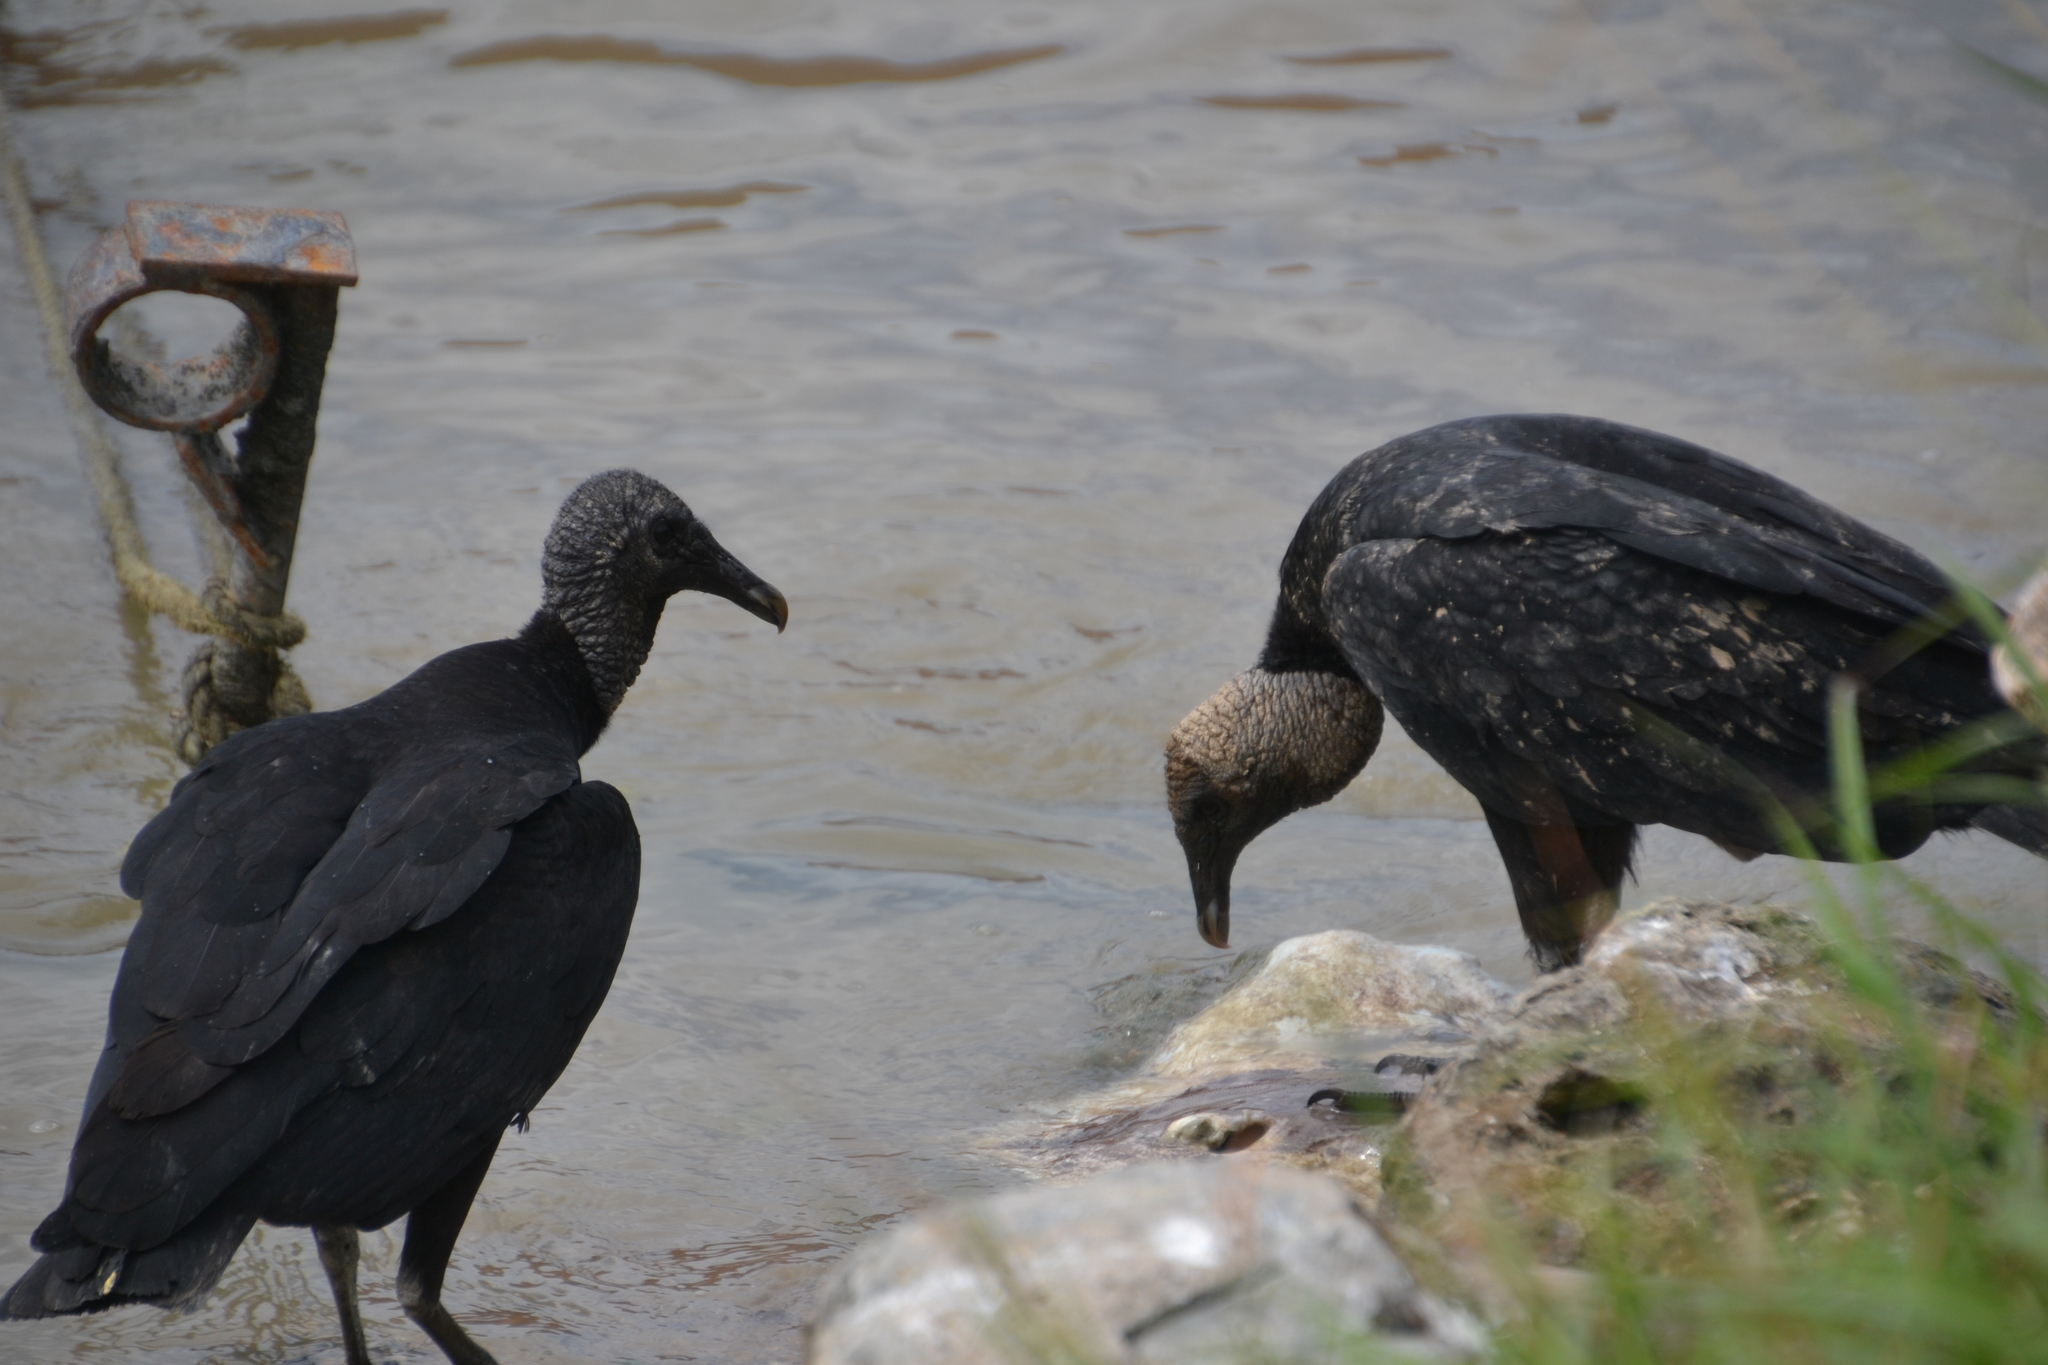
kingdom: Animalia
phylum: Chordata
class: Aves
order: Accipitriformes
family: Cathartidae
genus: Coragyps
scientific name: Coragyps atratus
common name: Black vulture
